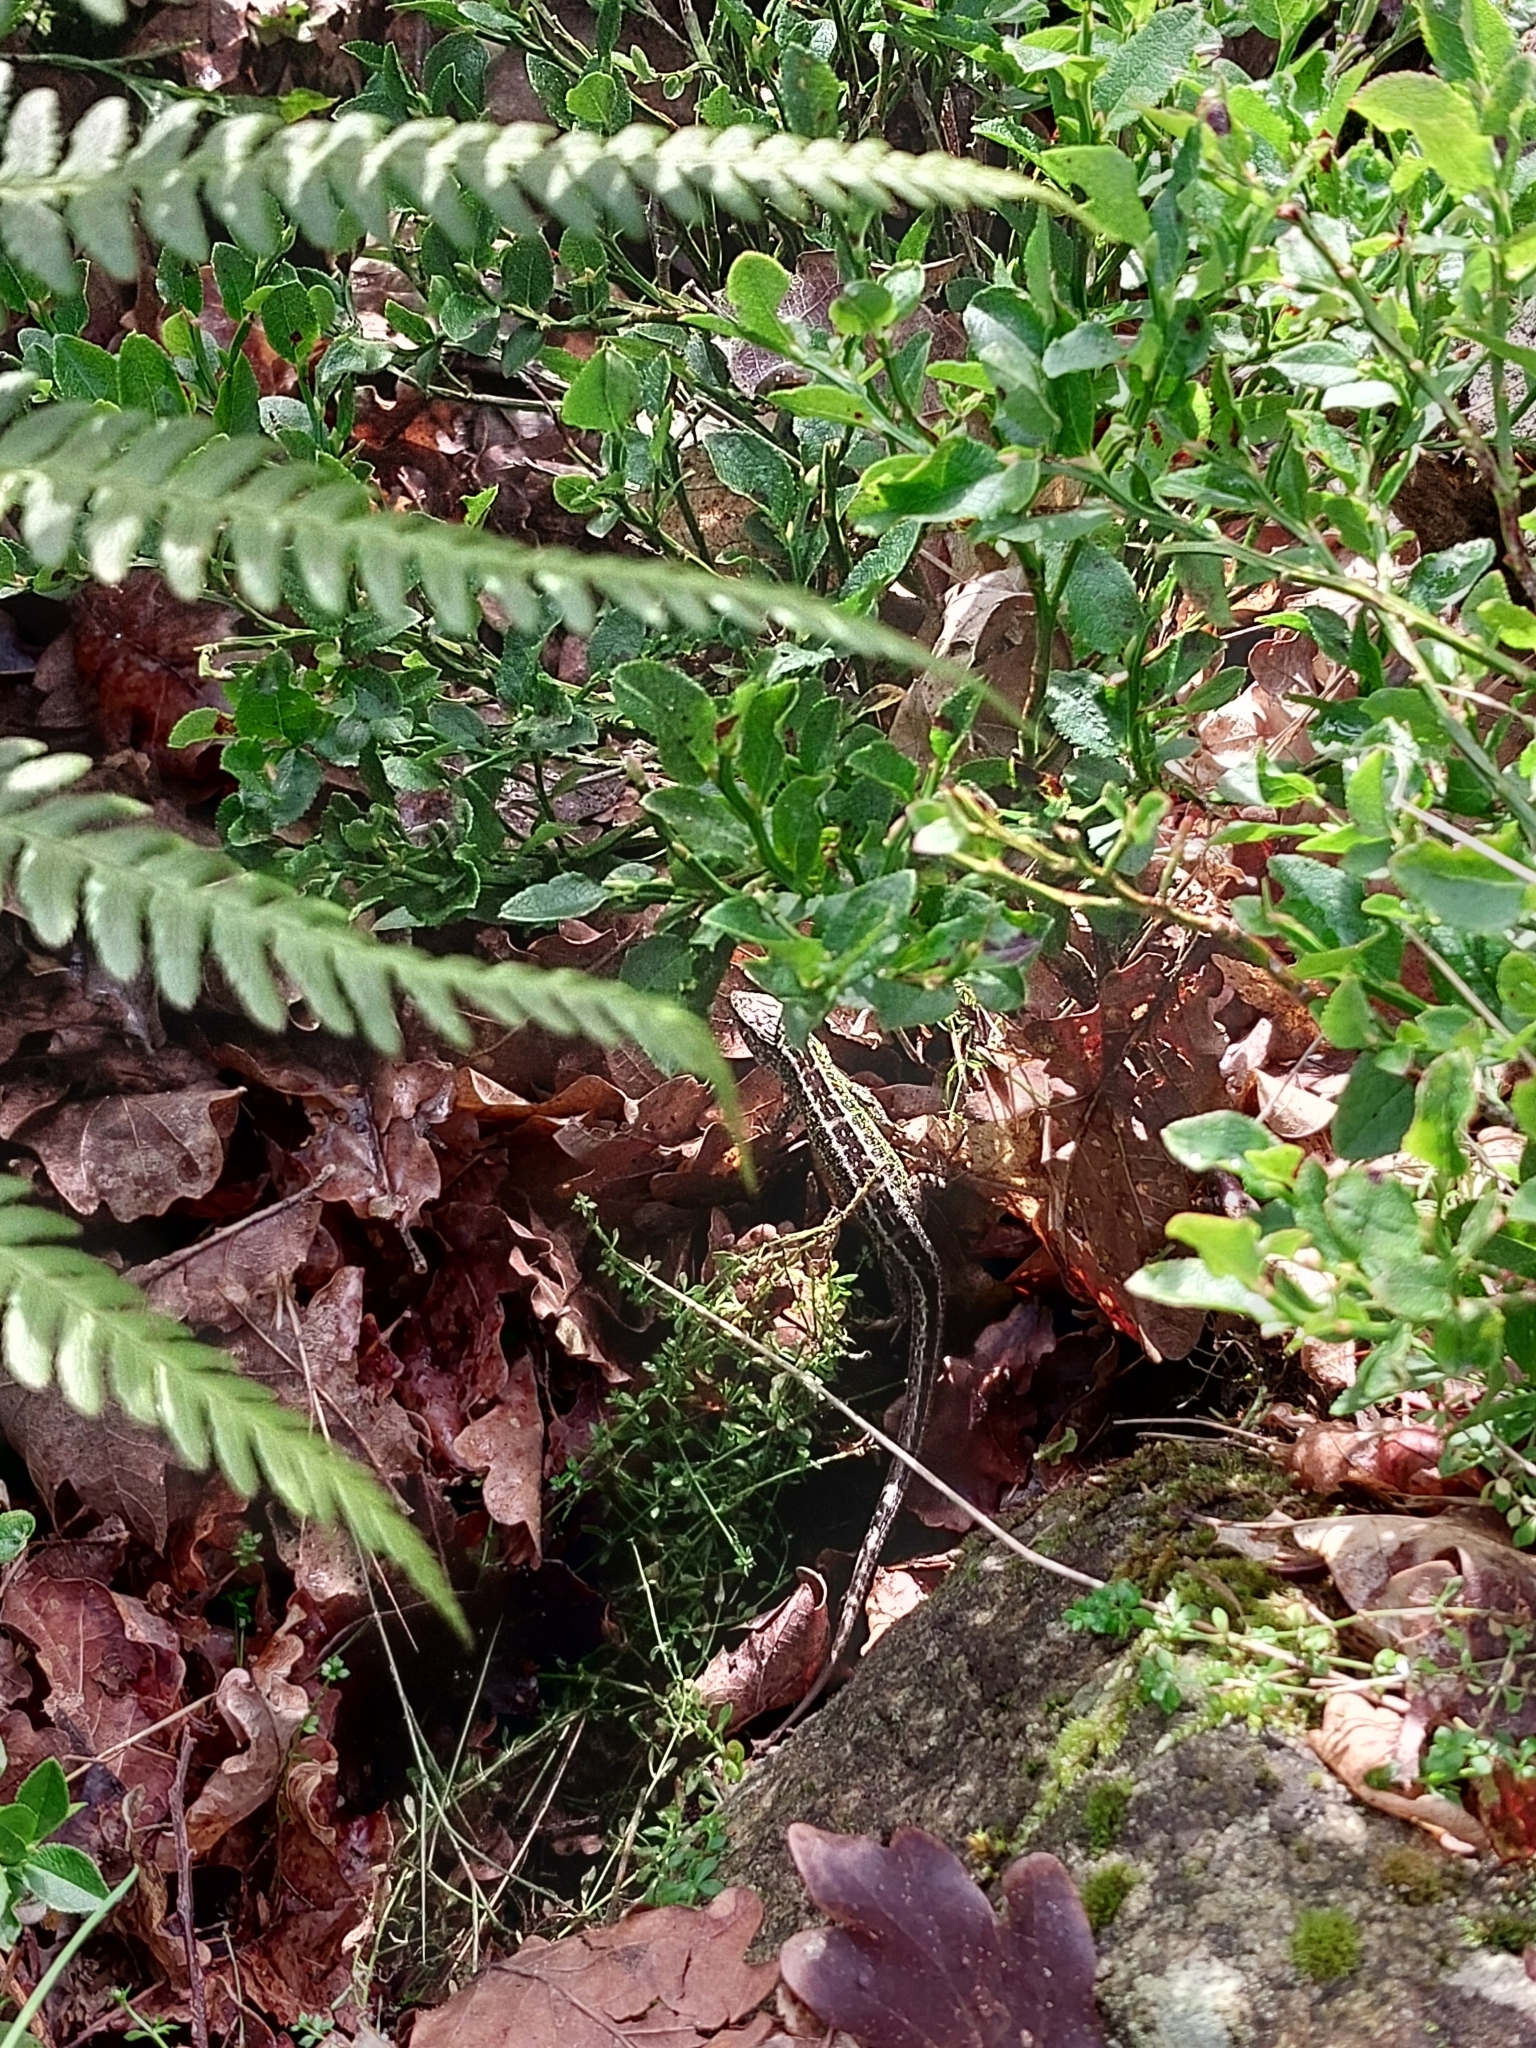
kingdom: Animalia
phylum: Chordata
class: Squamata
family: Lacertidae
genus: Lacerta
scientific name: Lacerta agilis
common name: Sand lizard
